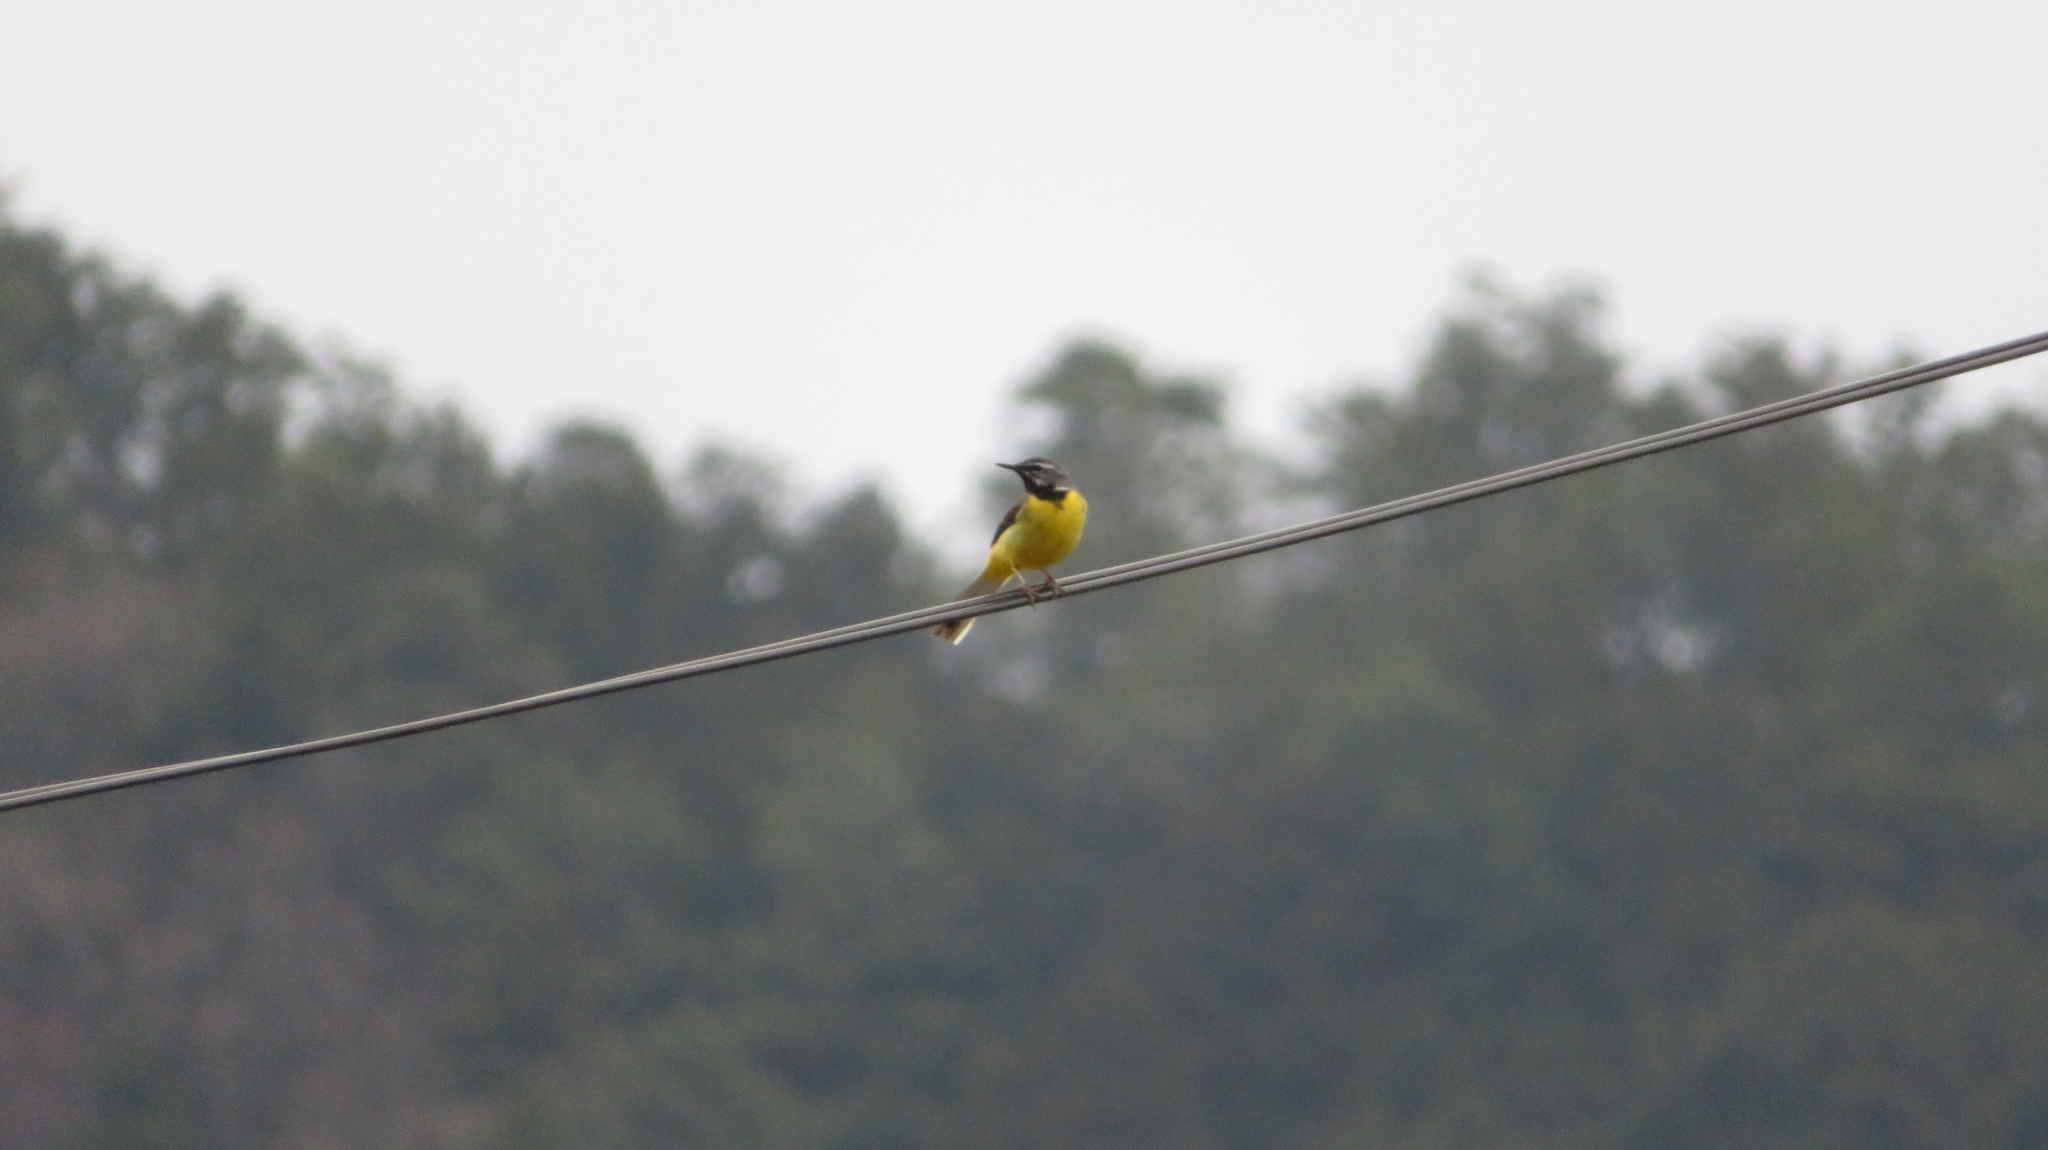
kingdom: Animalia
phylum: Chordata
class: Aves
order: Passeriformes
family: Motacillidae
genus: Motacilla
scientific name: Motacilla cinerea
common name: Grey wagtail
